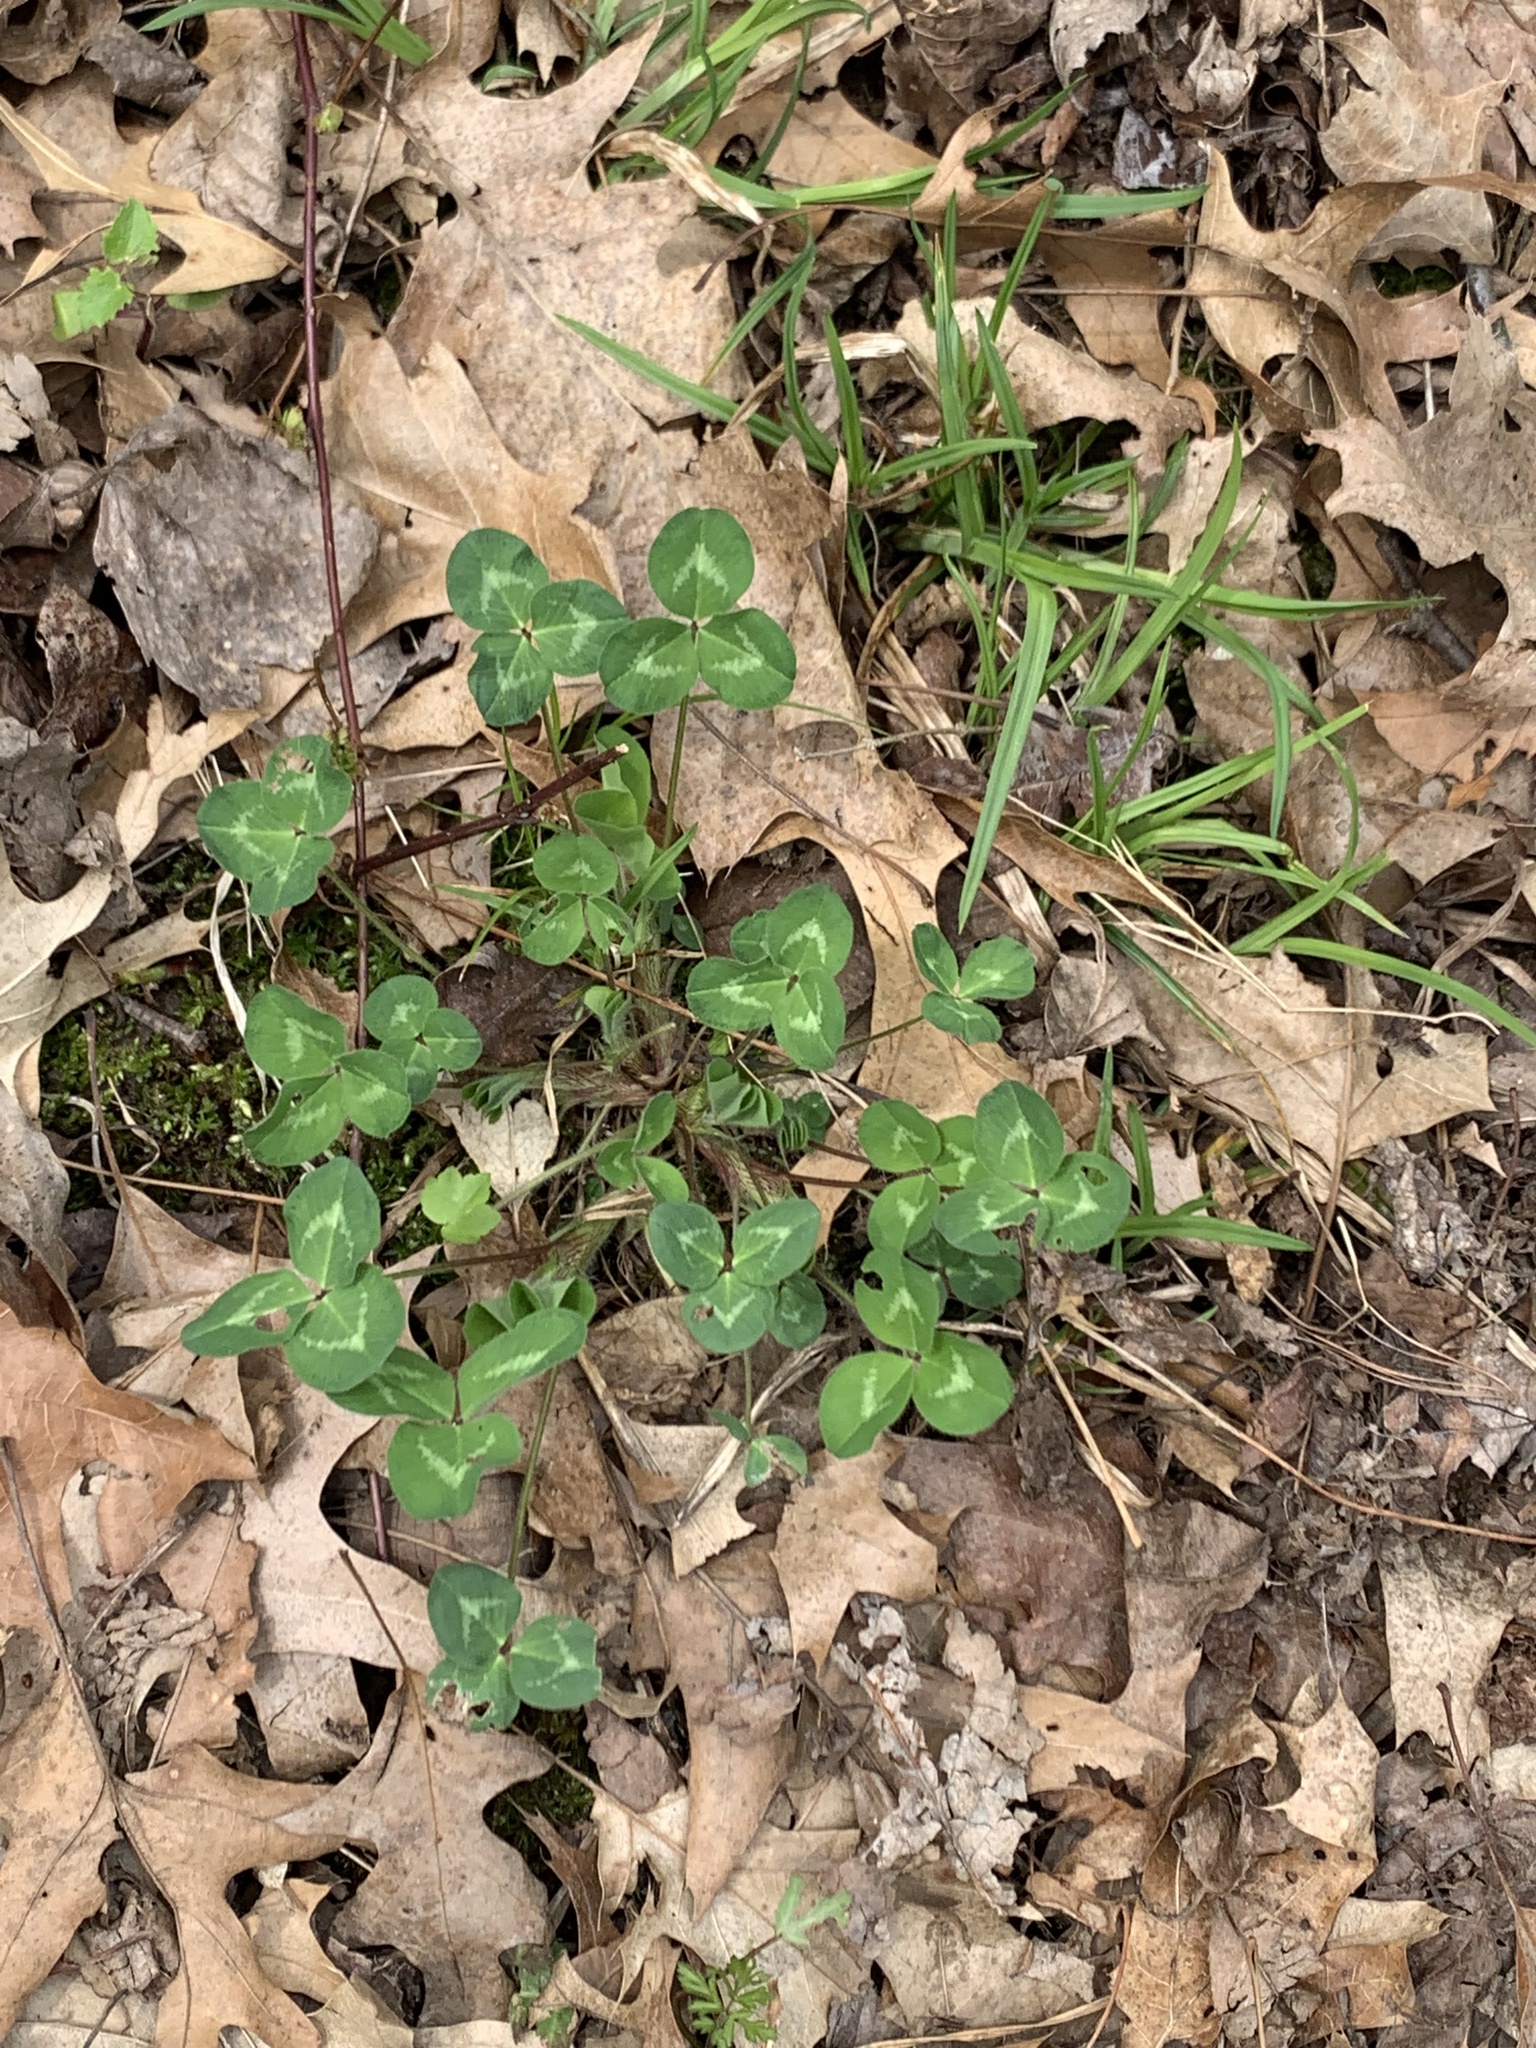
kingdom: Plantae
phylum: Tracheophyta
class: Magnoliopsida
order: Fabales
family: Fabaceae
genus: Trifolium
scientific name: Trifolium pratense
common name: Red clover
